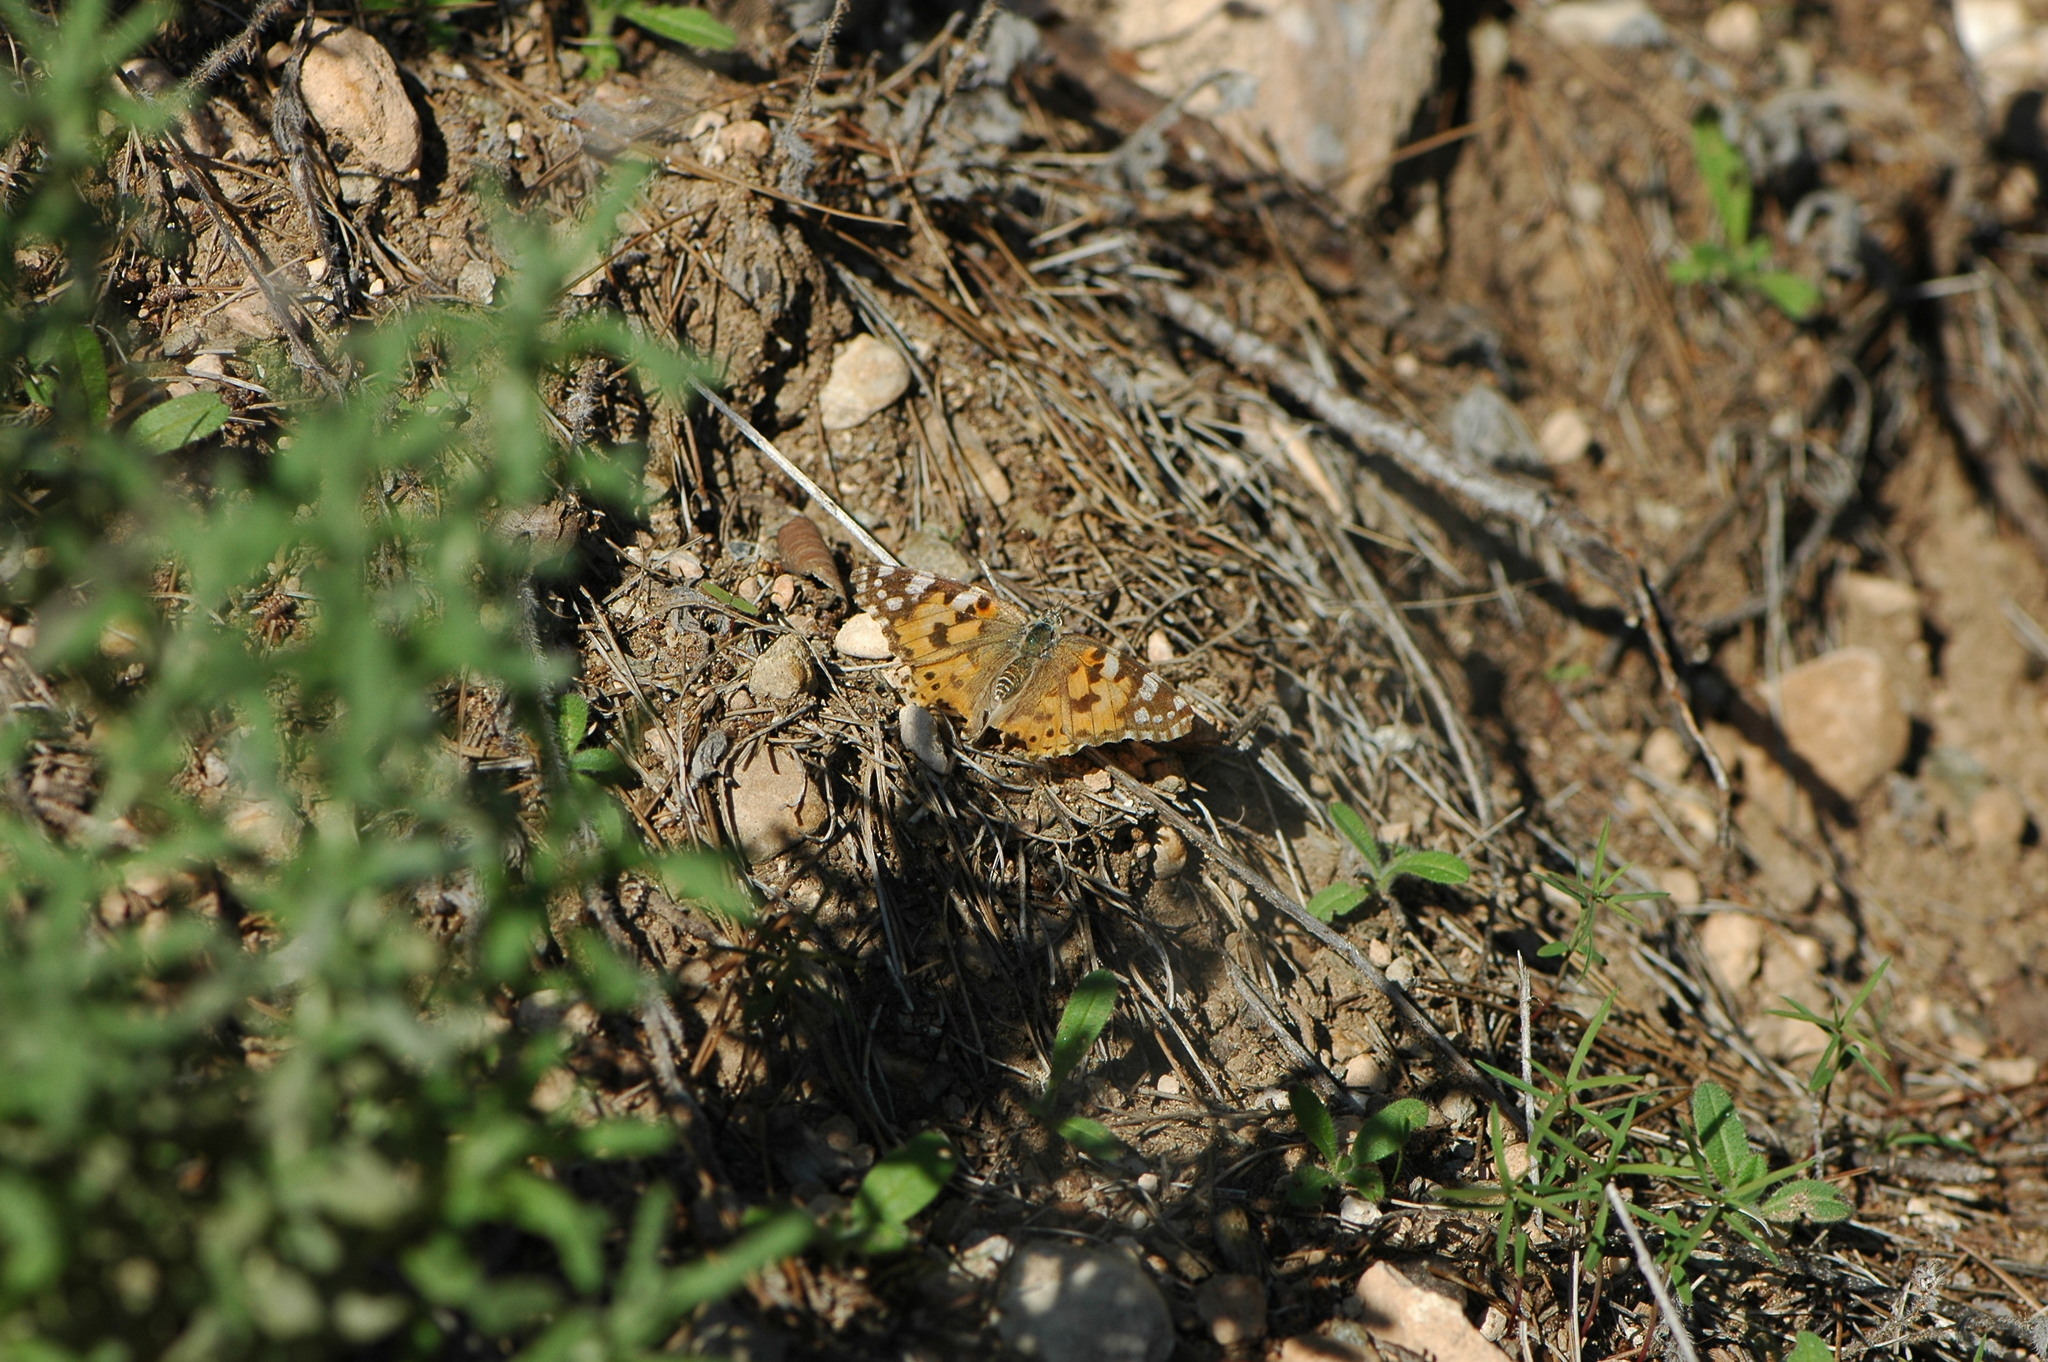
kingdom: Animalia
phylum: Arthropoda
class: Insecta
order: Lepidoptera
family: Nymphalidae
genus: Vanessa
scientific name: Vanessa cardui
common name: Painted lady
